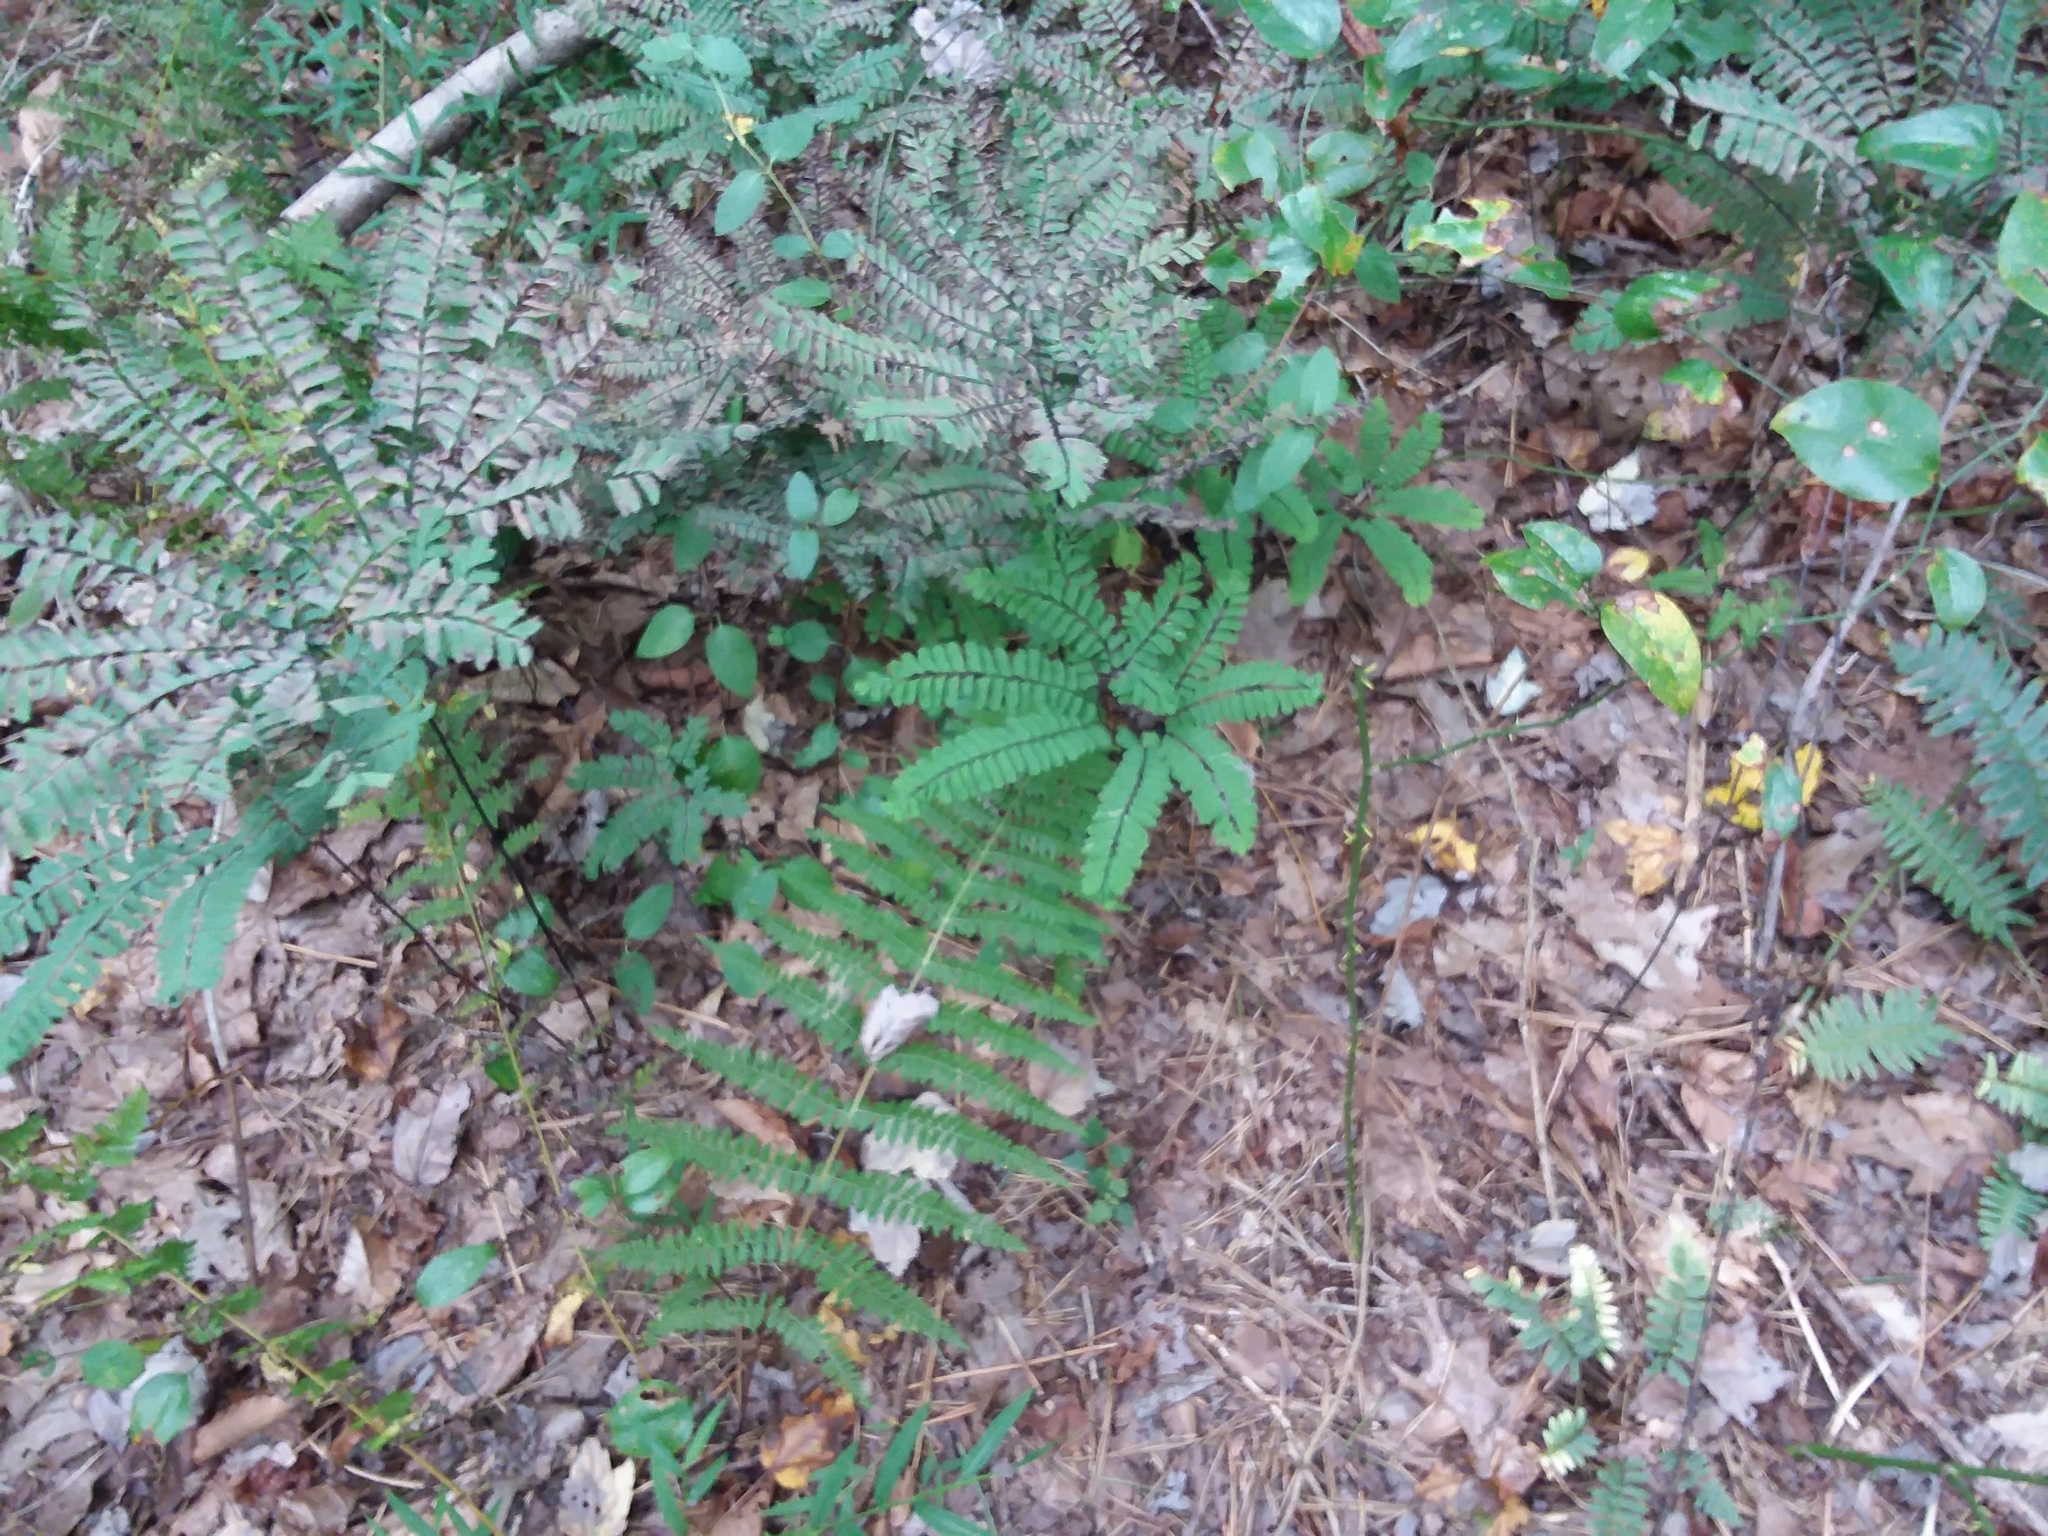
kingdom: Plantae
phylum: Tracheophyta
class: Polypodiopsida
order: Polypodiales
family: Pteridaceae
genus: Adiantum
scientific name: Adiantum pedatum
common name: Five-finger fern
